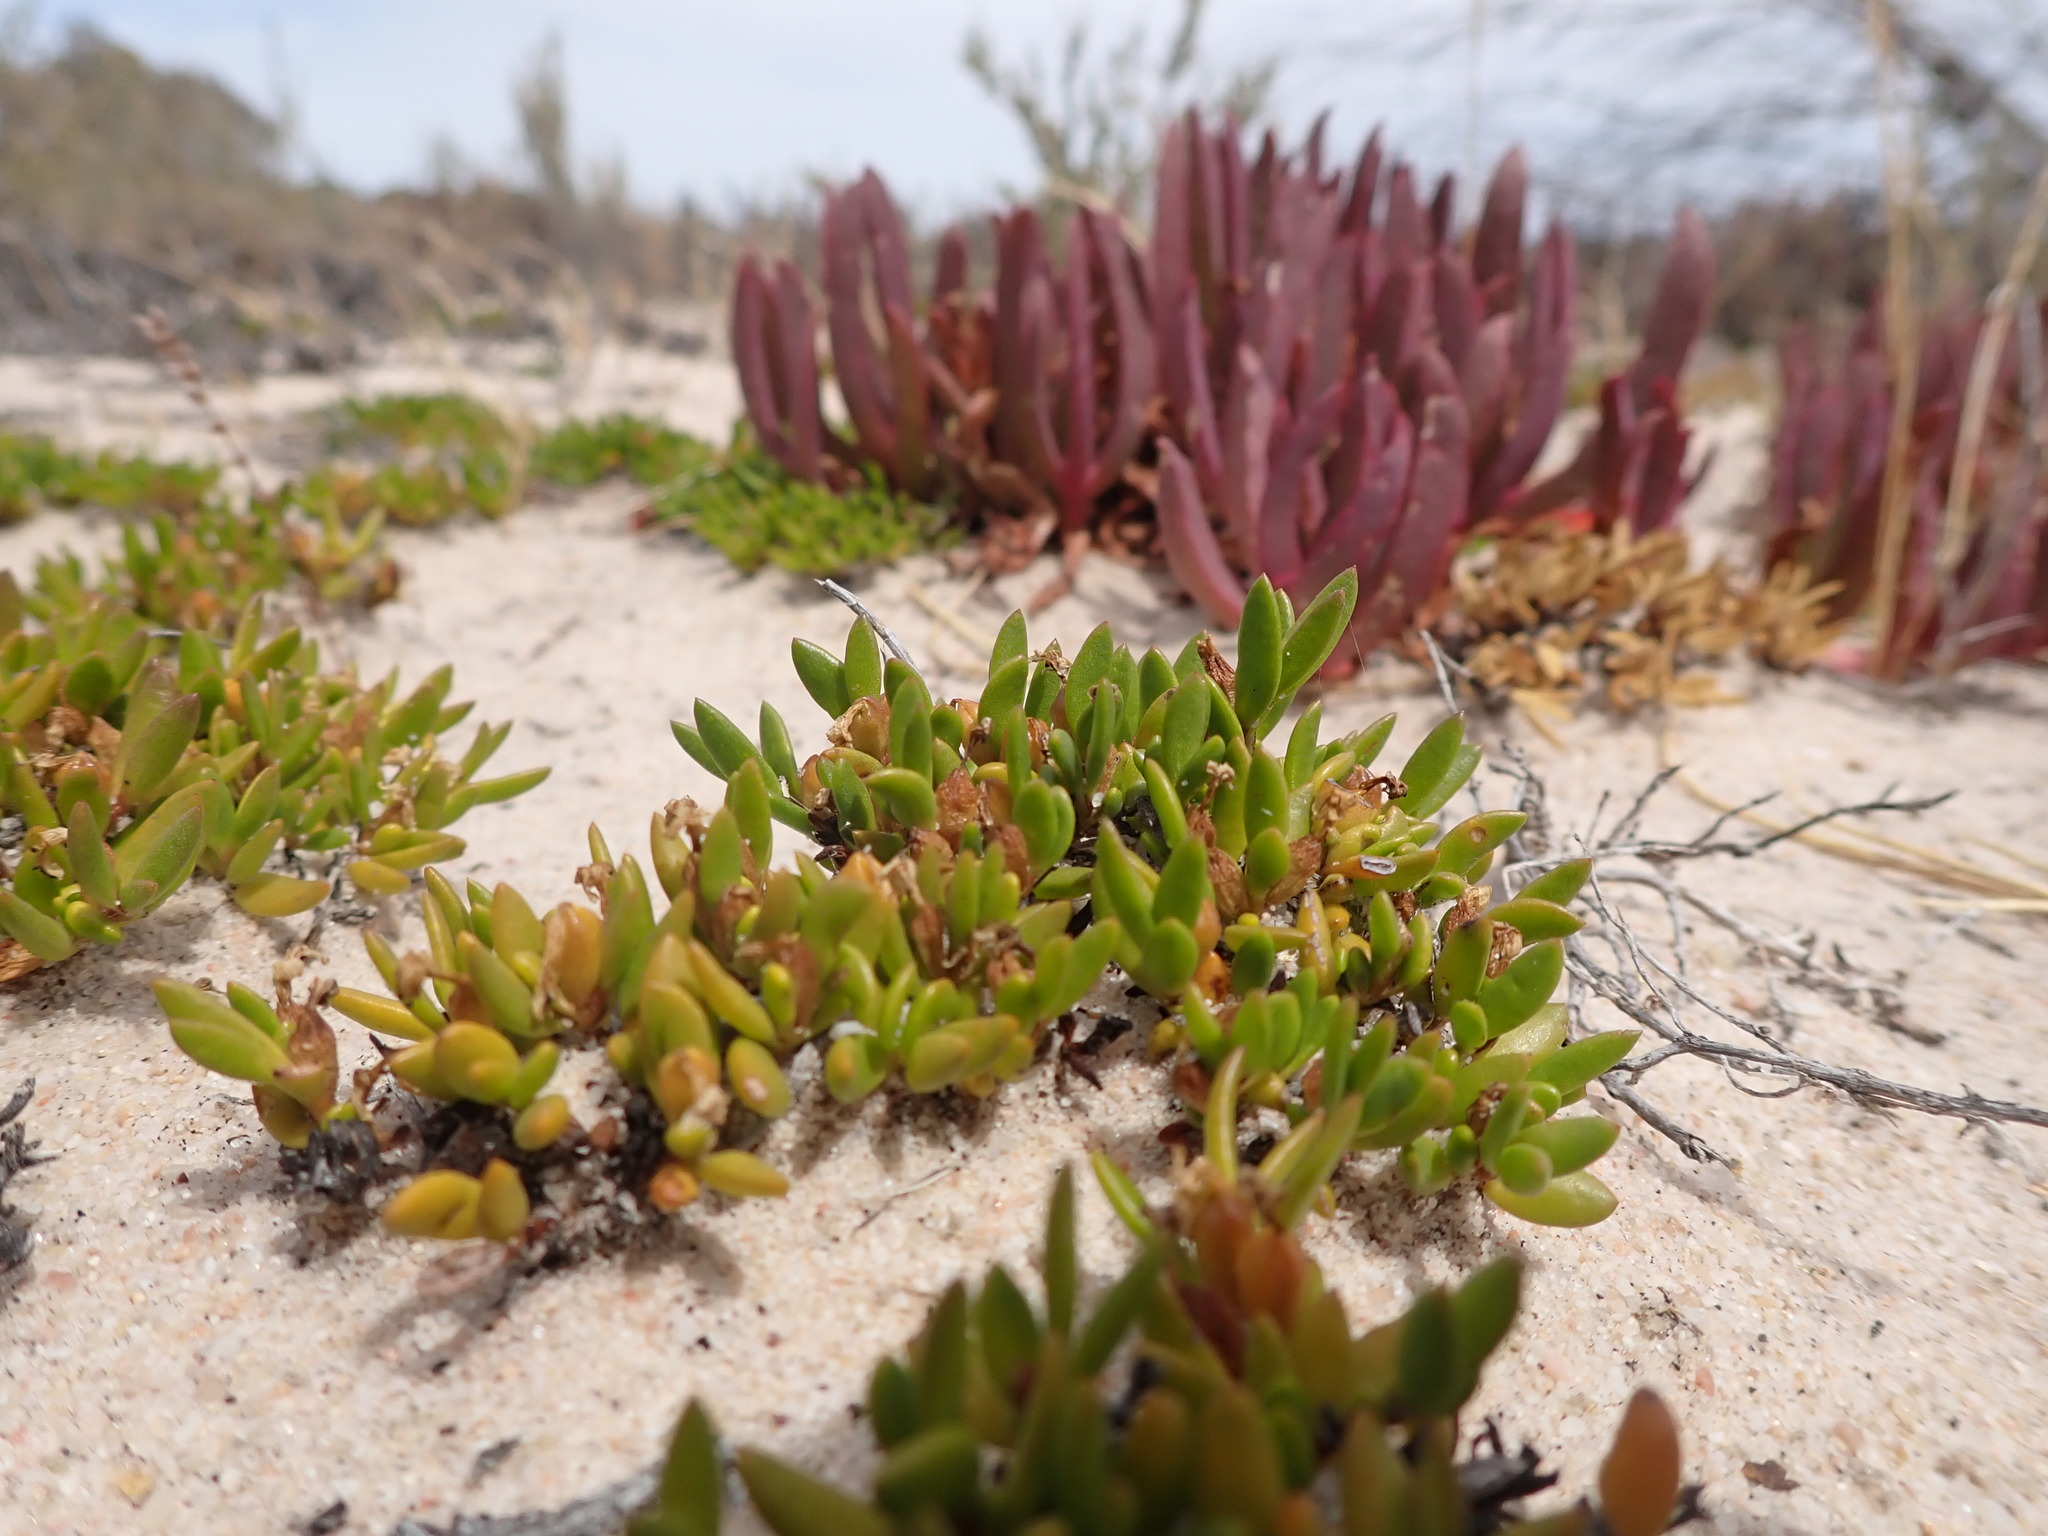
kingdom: Plantae
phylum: Tracheophyta
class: Magnoliopsida
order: Solanales
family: Convolvulaceae
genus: Wilsonia
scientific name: Wilsonia backhousei
